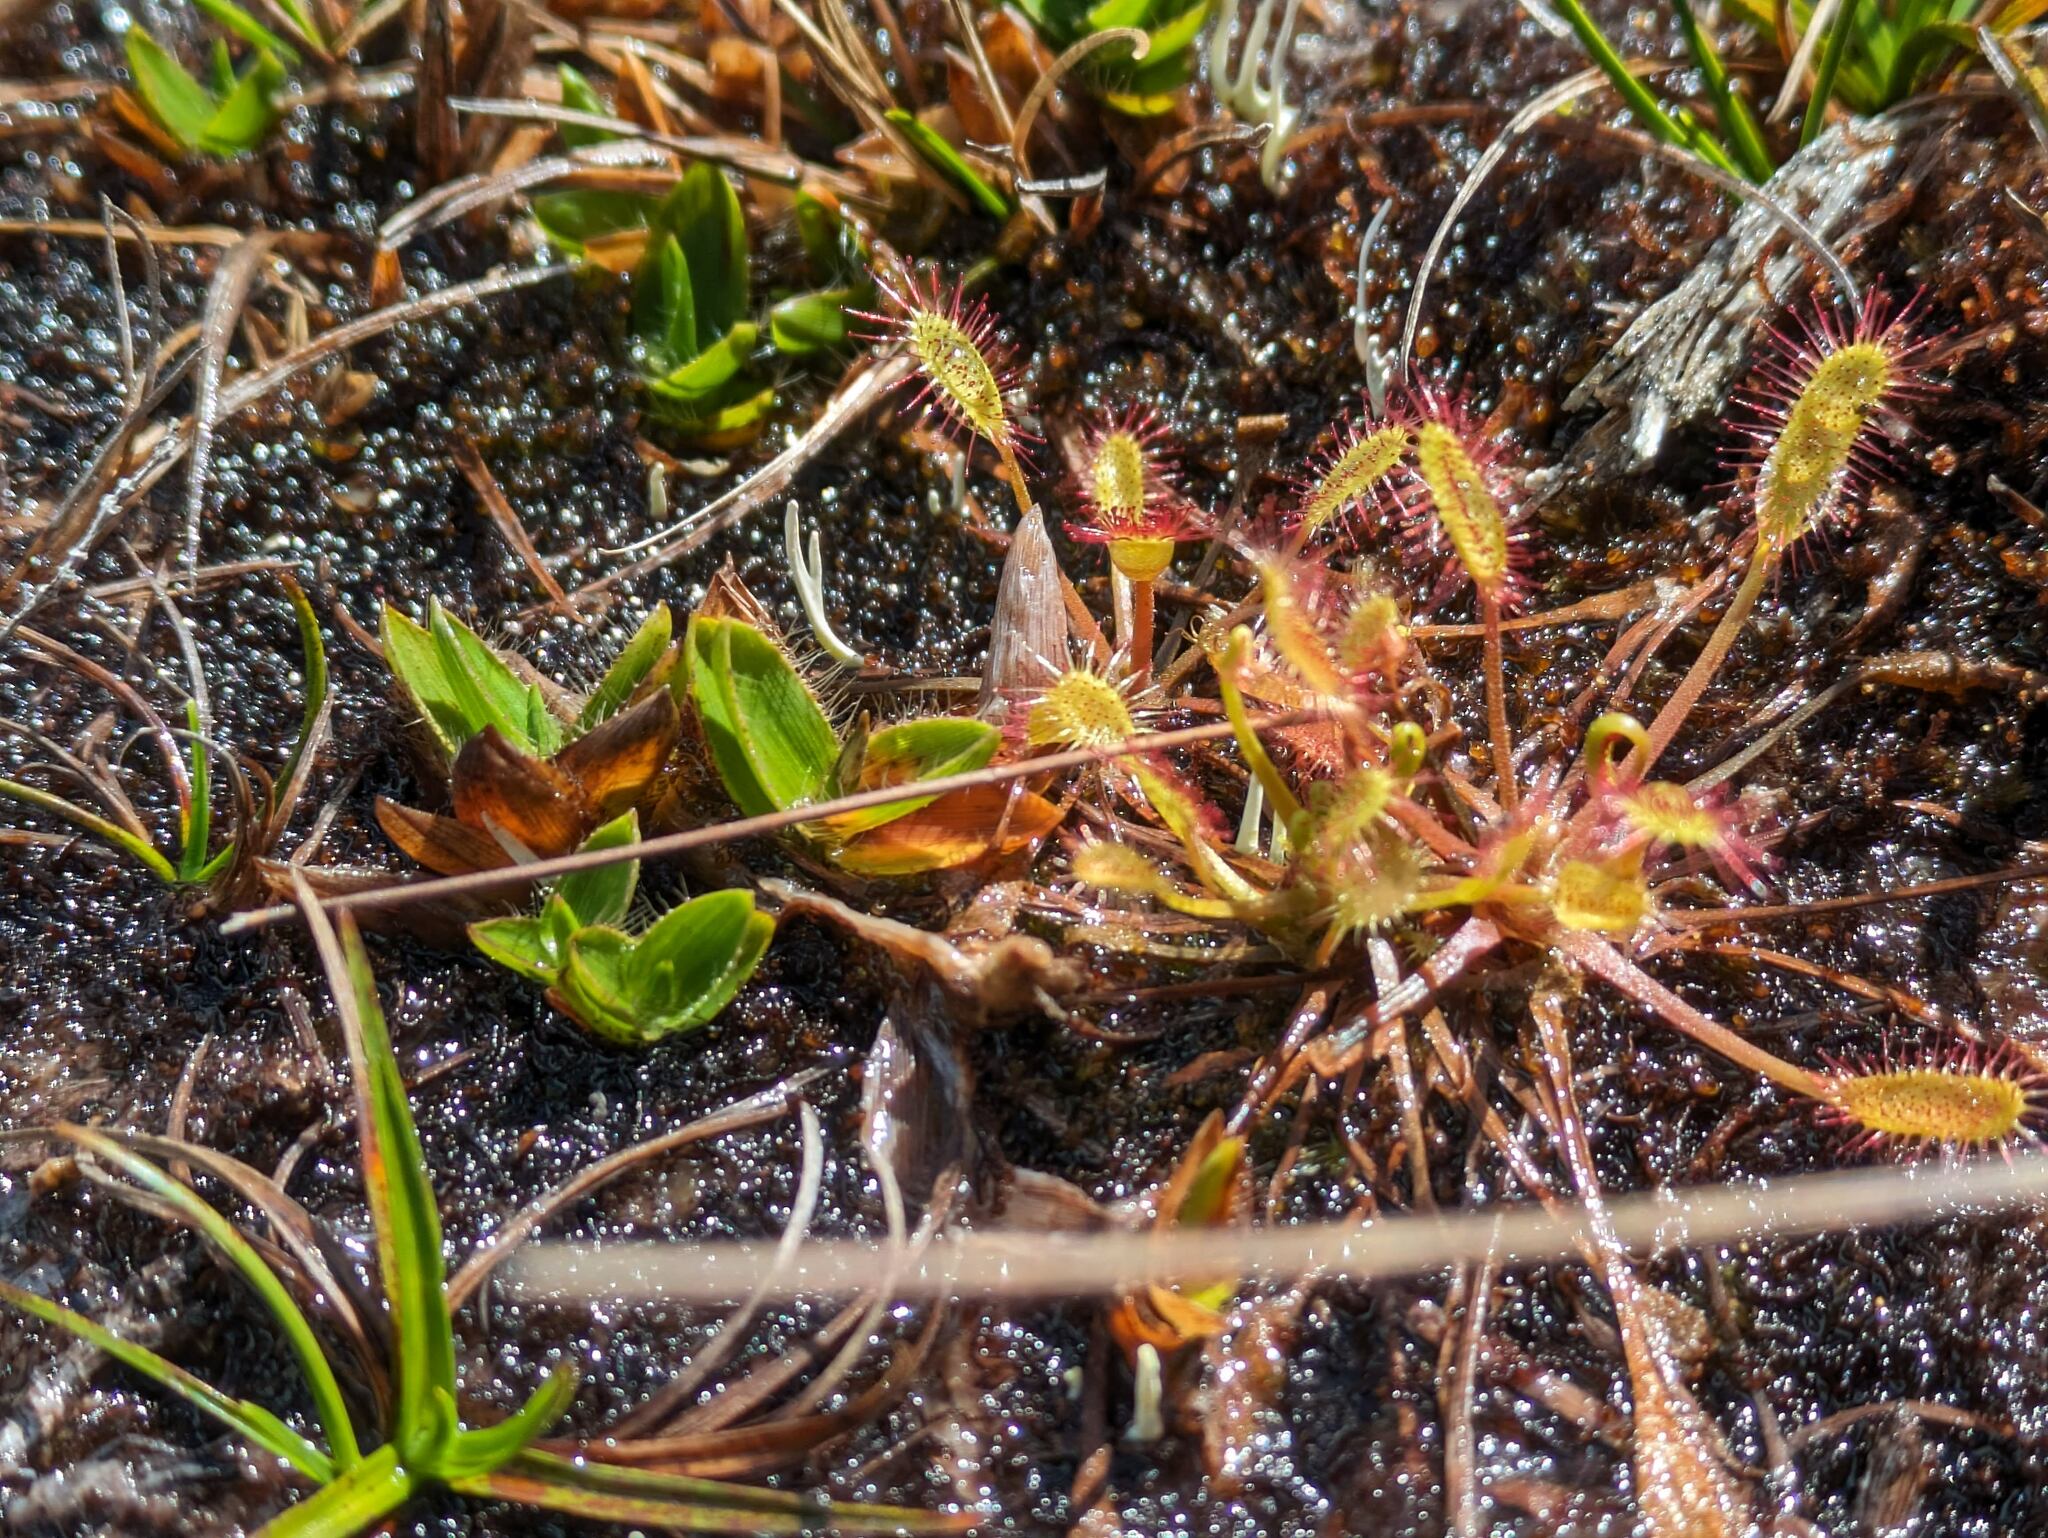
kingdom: Plantae
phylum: Tracheophyta
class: Magnoliopsida
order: Caryophyllales
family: Droseraceae
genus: Drosera
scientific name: Drosera anglica
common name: Great sundew
